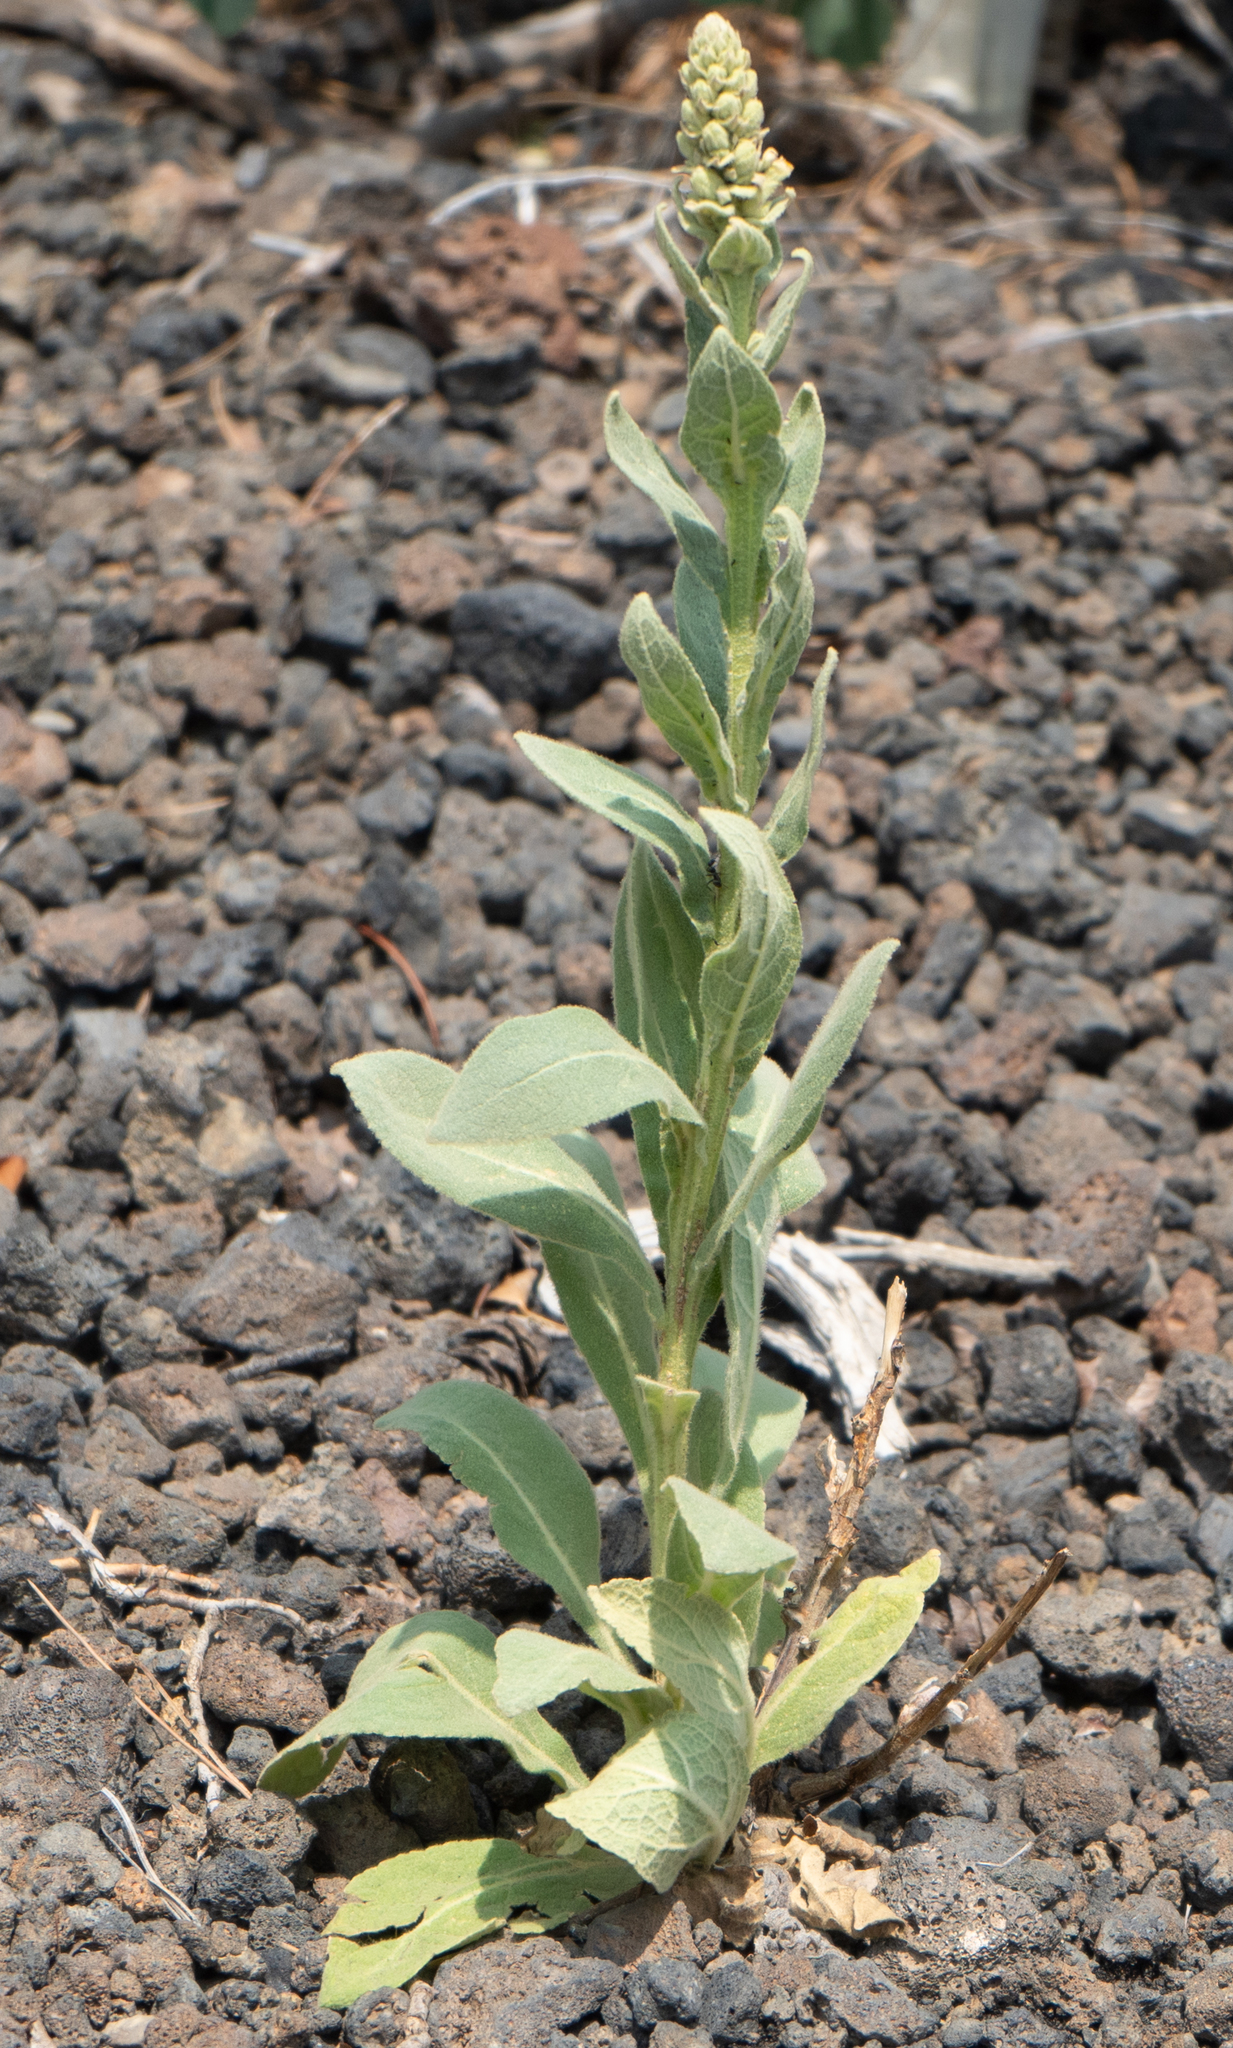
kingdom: Plantae
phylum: Tracheophyta
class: Magnoliopsida
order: Lamiales
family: Scrophulariaceae
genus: Verbascum
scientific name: Verbascum thapsus
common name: Common mullein
